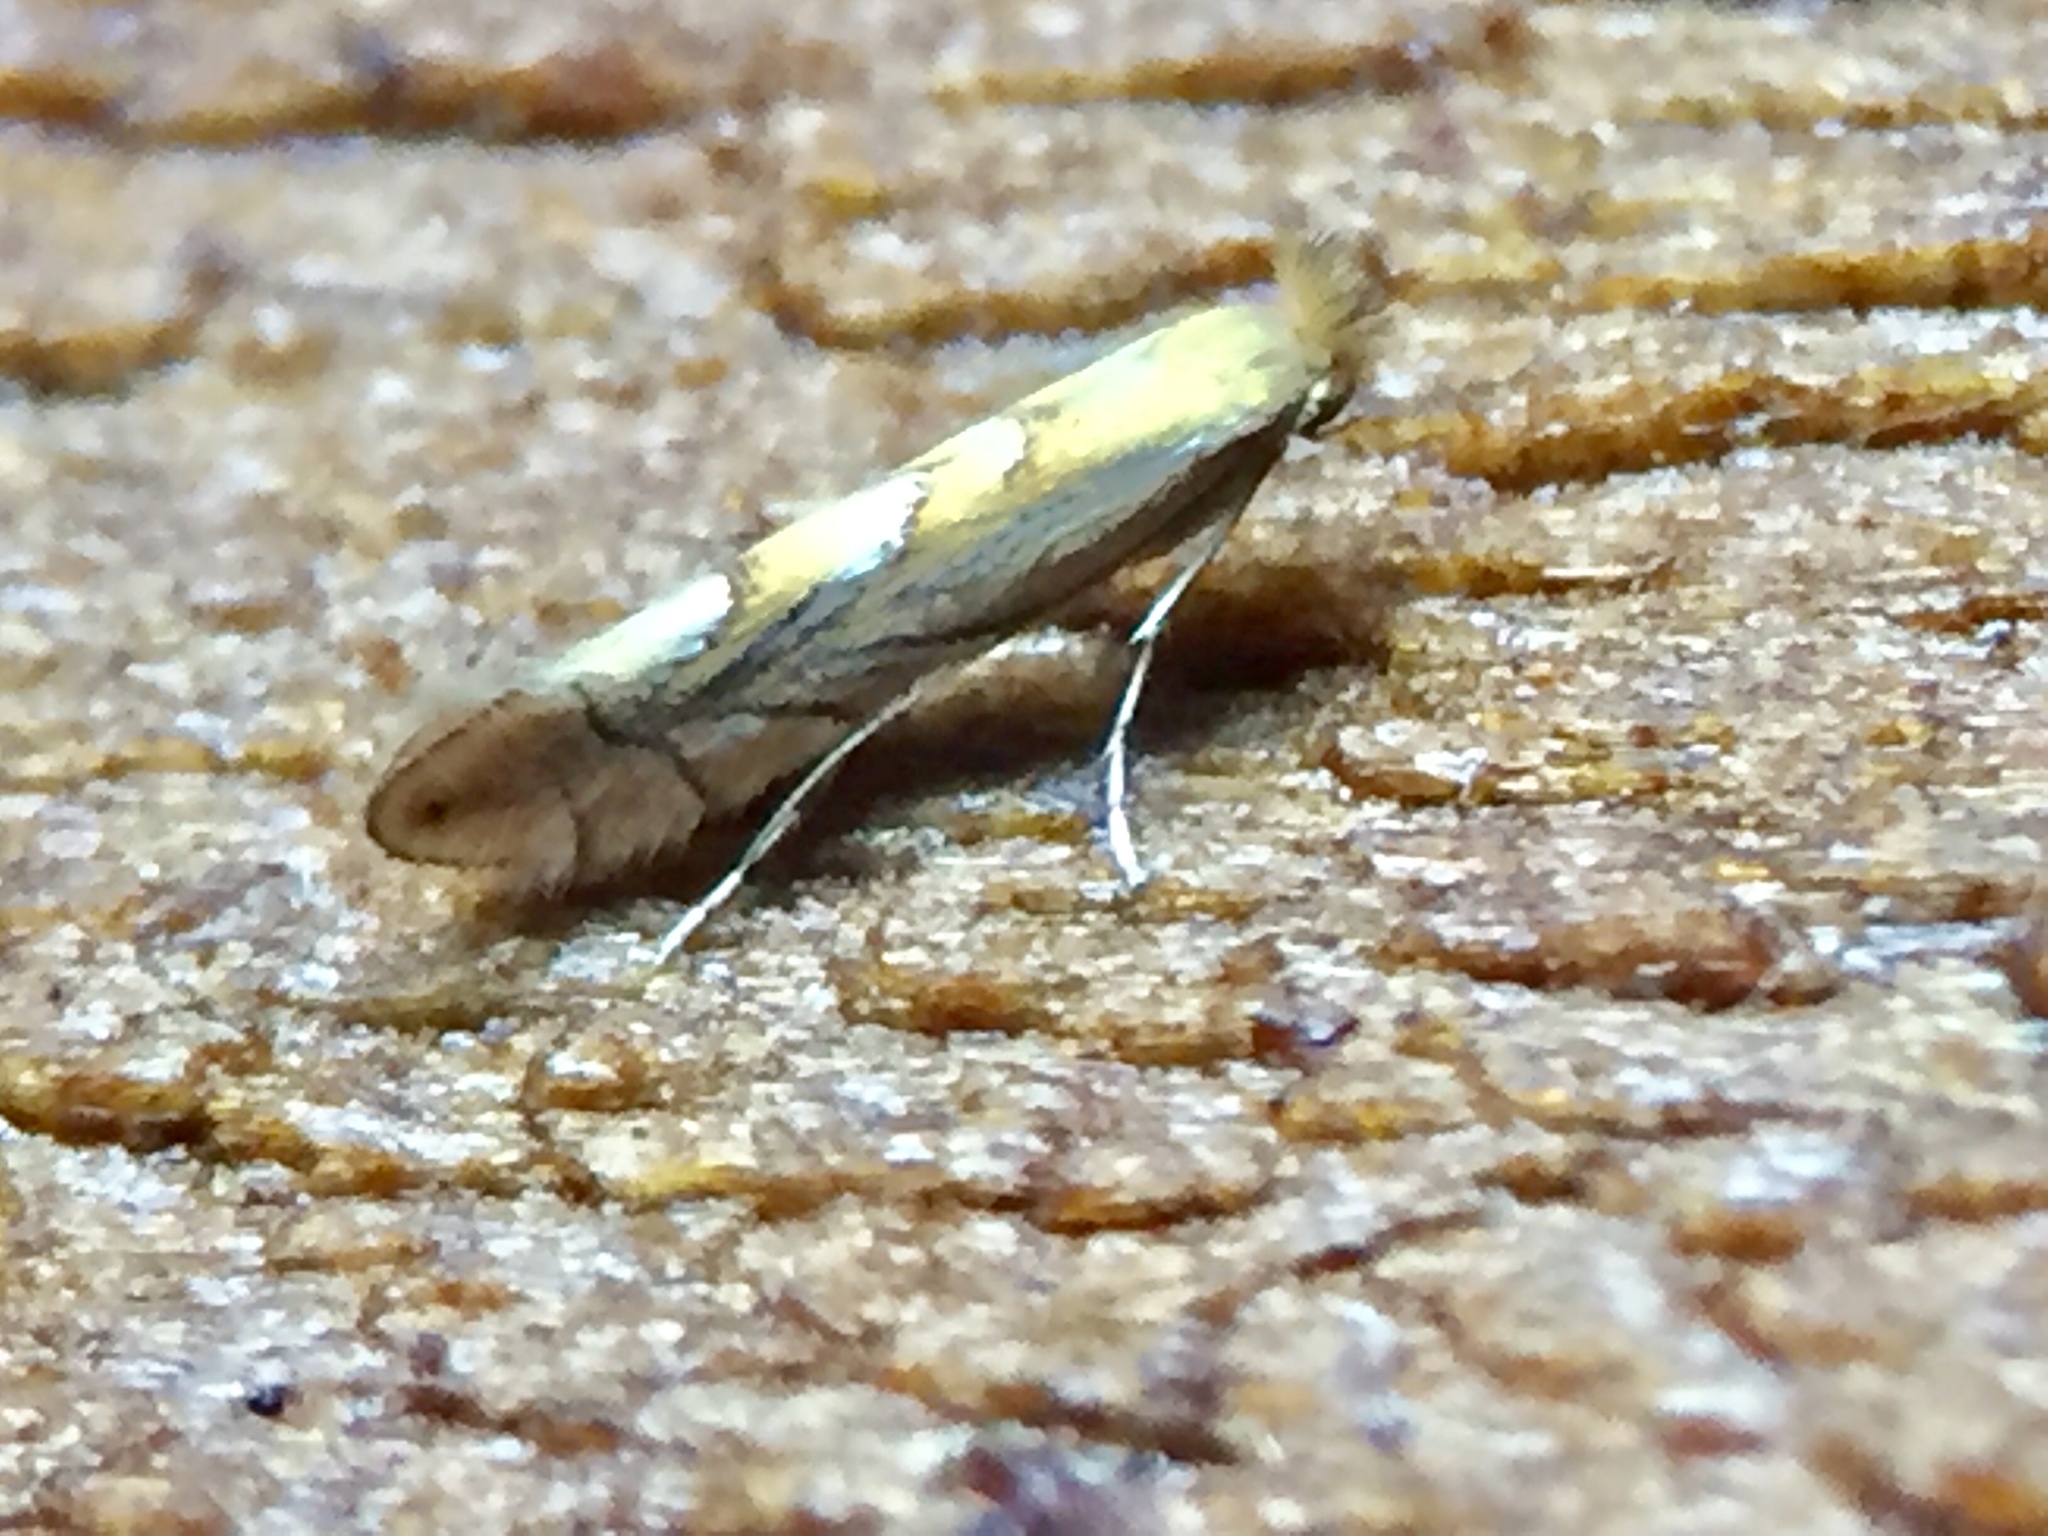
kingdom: Animalia
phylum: Arthropoda
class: Insecta
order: Lepidoptera
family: Gracillariidae
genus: Phyllonorycter
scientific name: Phyllonorycter messaniella
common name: Garden midget
